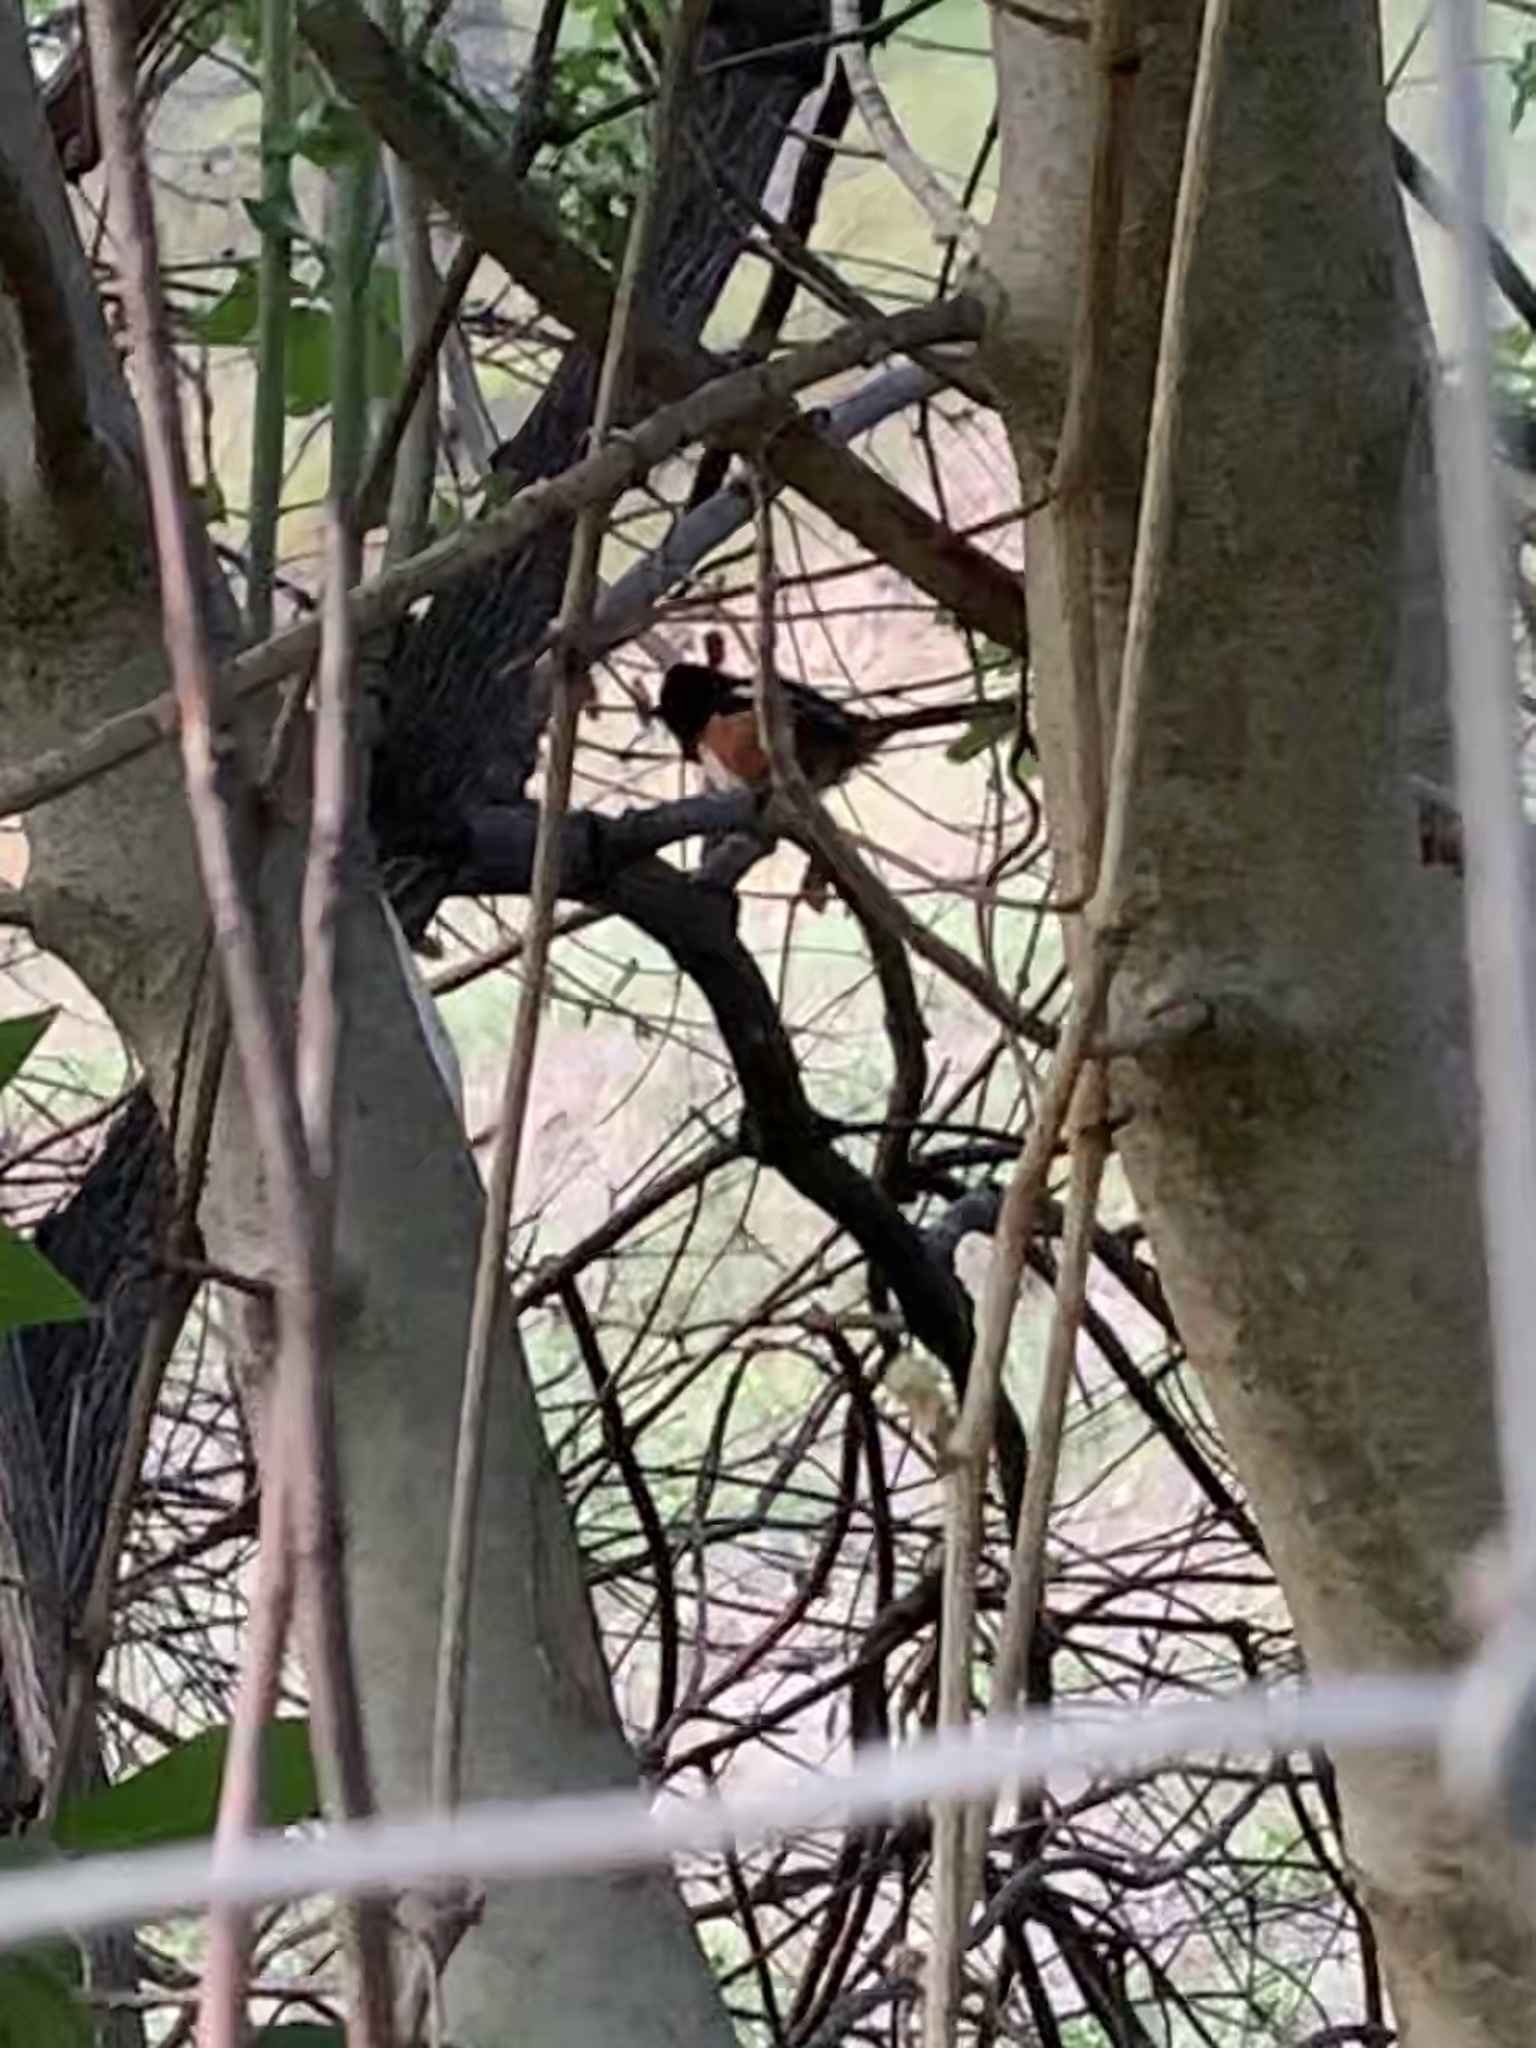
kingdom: Animalia
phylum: Chordata
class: Aves
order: Passeriformes
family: Passerellidae
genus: Pipilo
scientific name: Pipilo maculatus
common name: Spotted towhee
